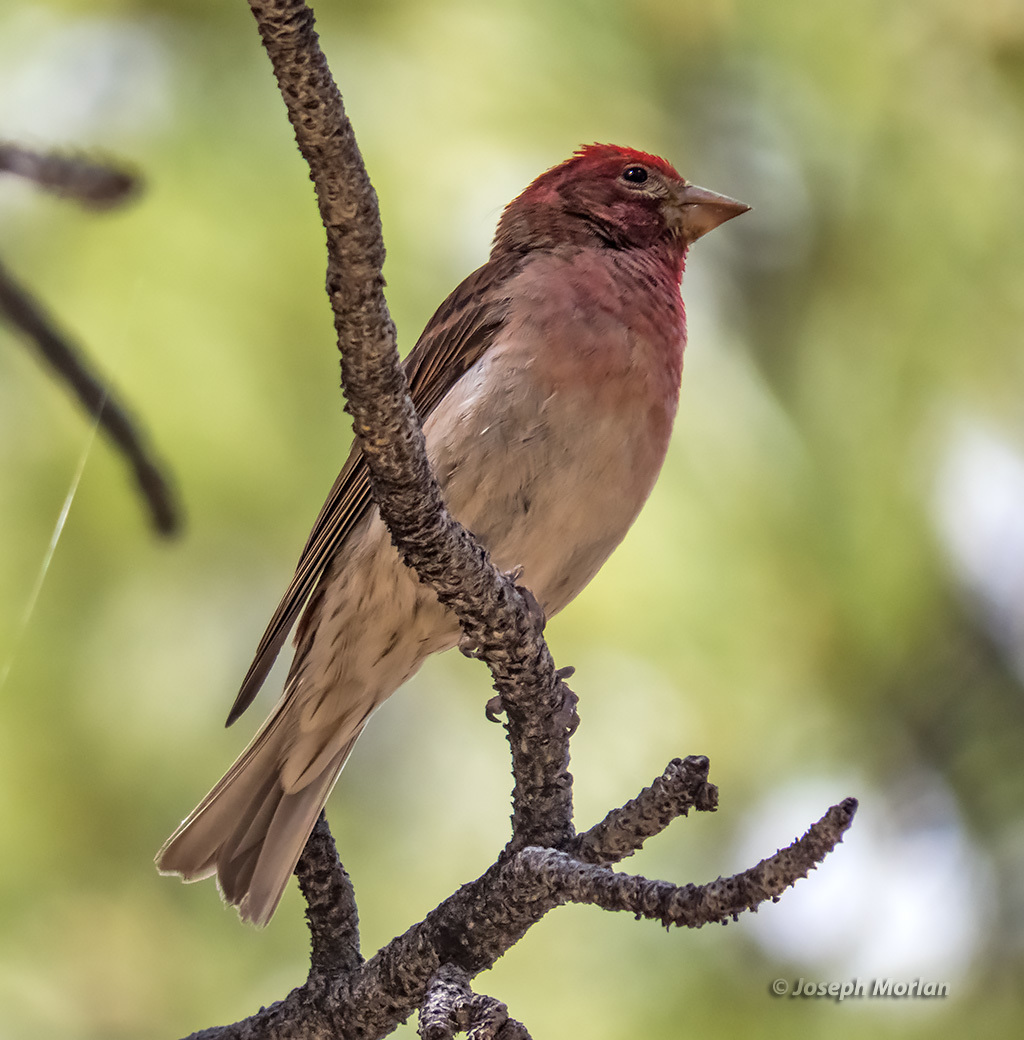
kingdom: Animalia
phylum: Chordata
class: Aves
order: Passeriformes
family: Fringillidae
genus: Haemorhous
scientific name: Haemorhous cassinii
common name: Cassin's finch
